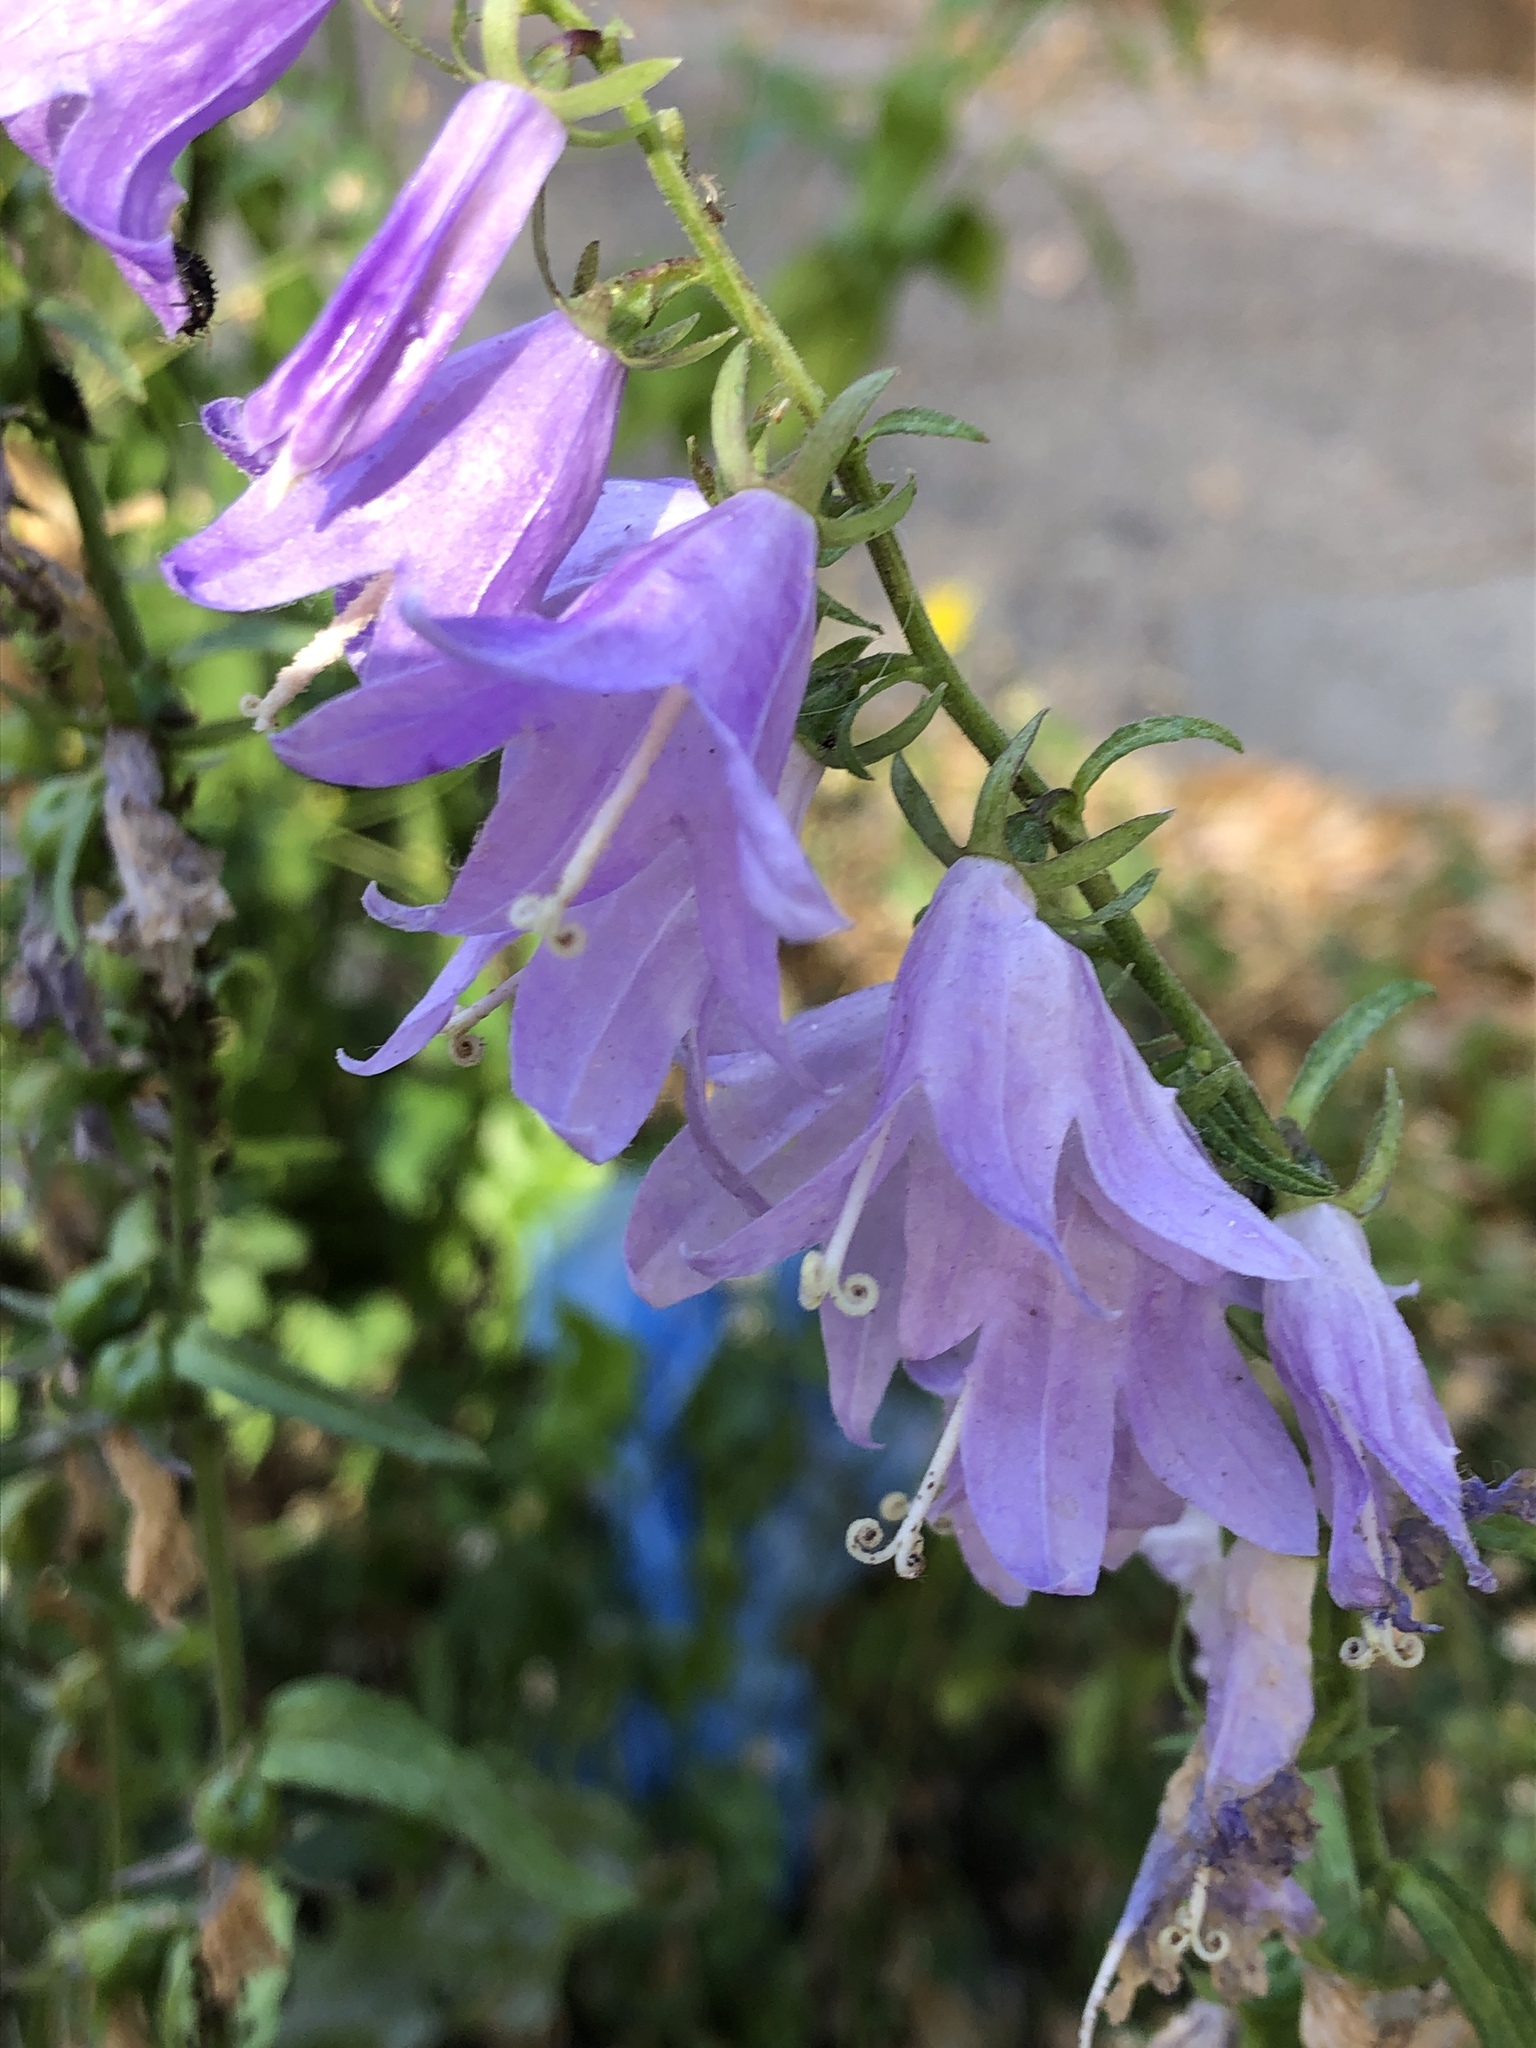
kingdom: Plantae
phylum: Tracheophyta
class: Magnoliopsida
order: Asterales
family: Campanulaceae
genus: Campanula
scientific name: Campanula rapunculoides
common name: Creeping bellflower
